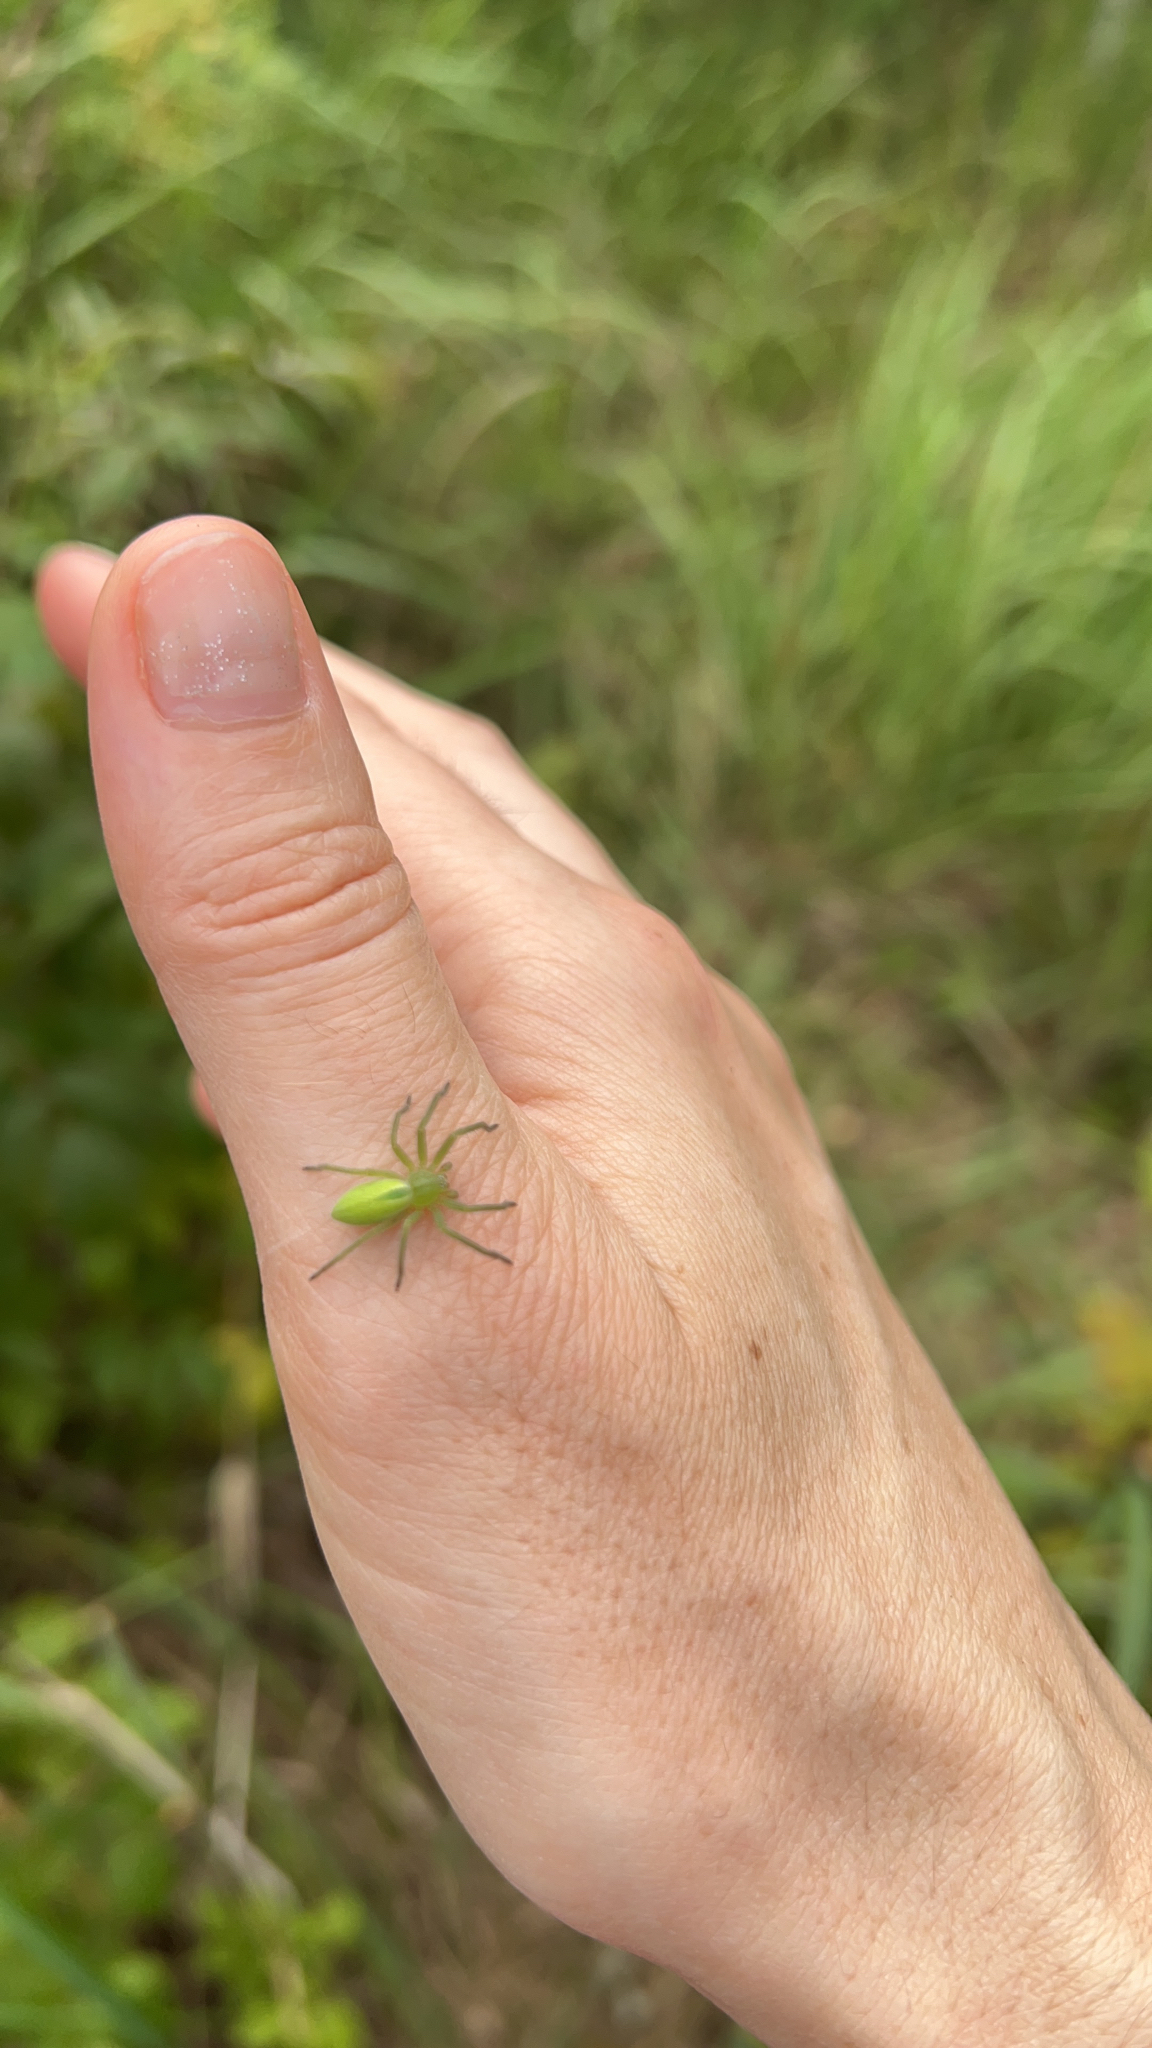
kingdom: Animalia
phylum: Arthropoda
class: Arachnida
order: Araneae
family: Sparassidae
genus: Micrommata
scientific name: Micrommata virescens
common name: Green spider
